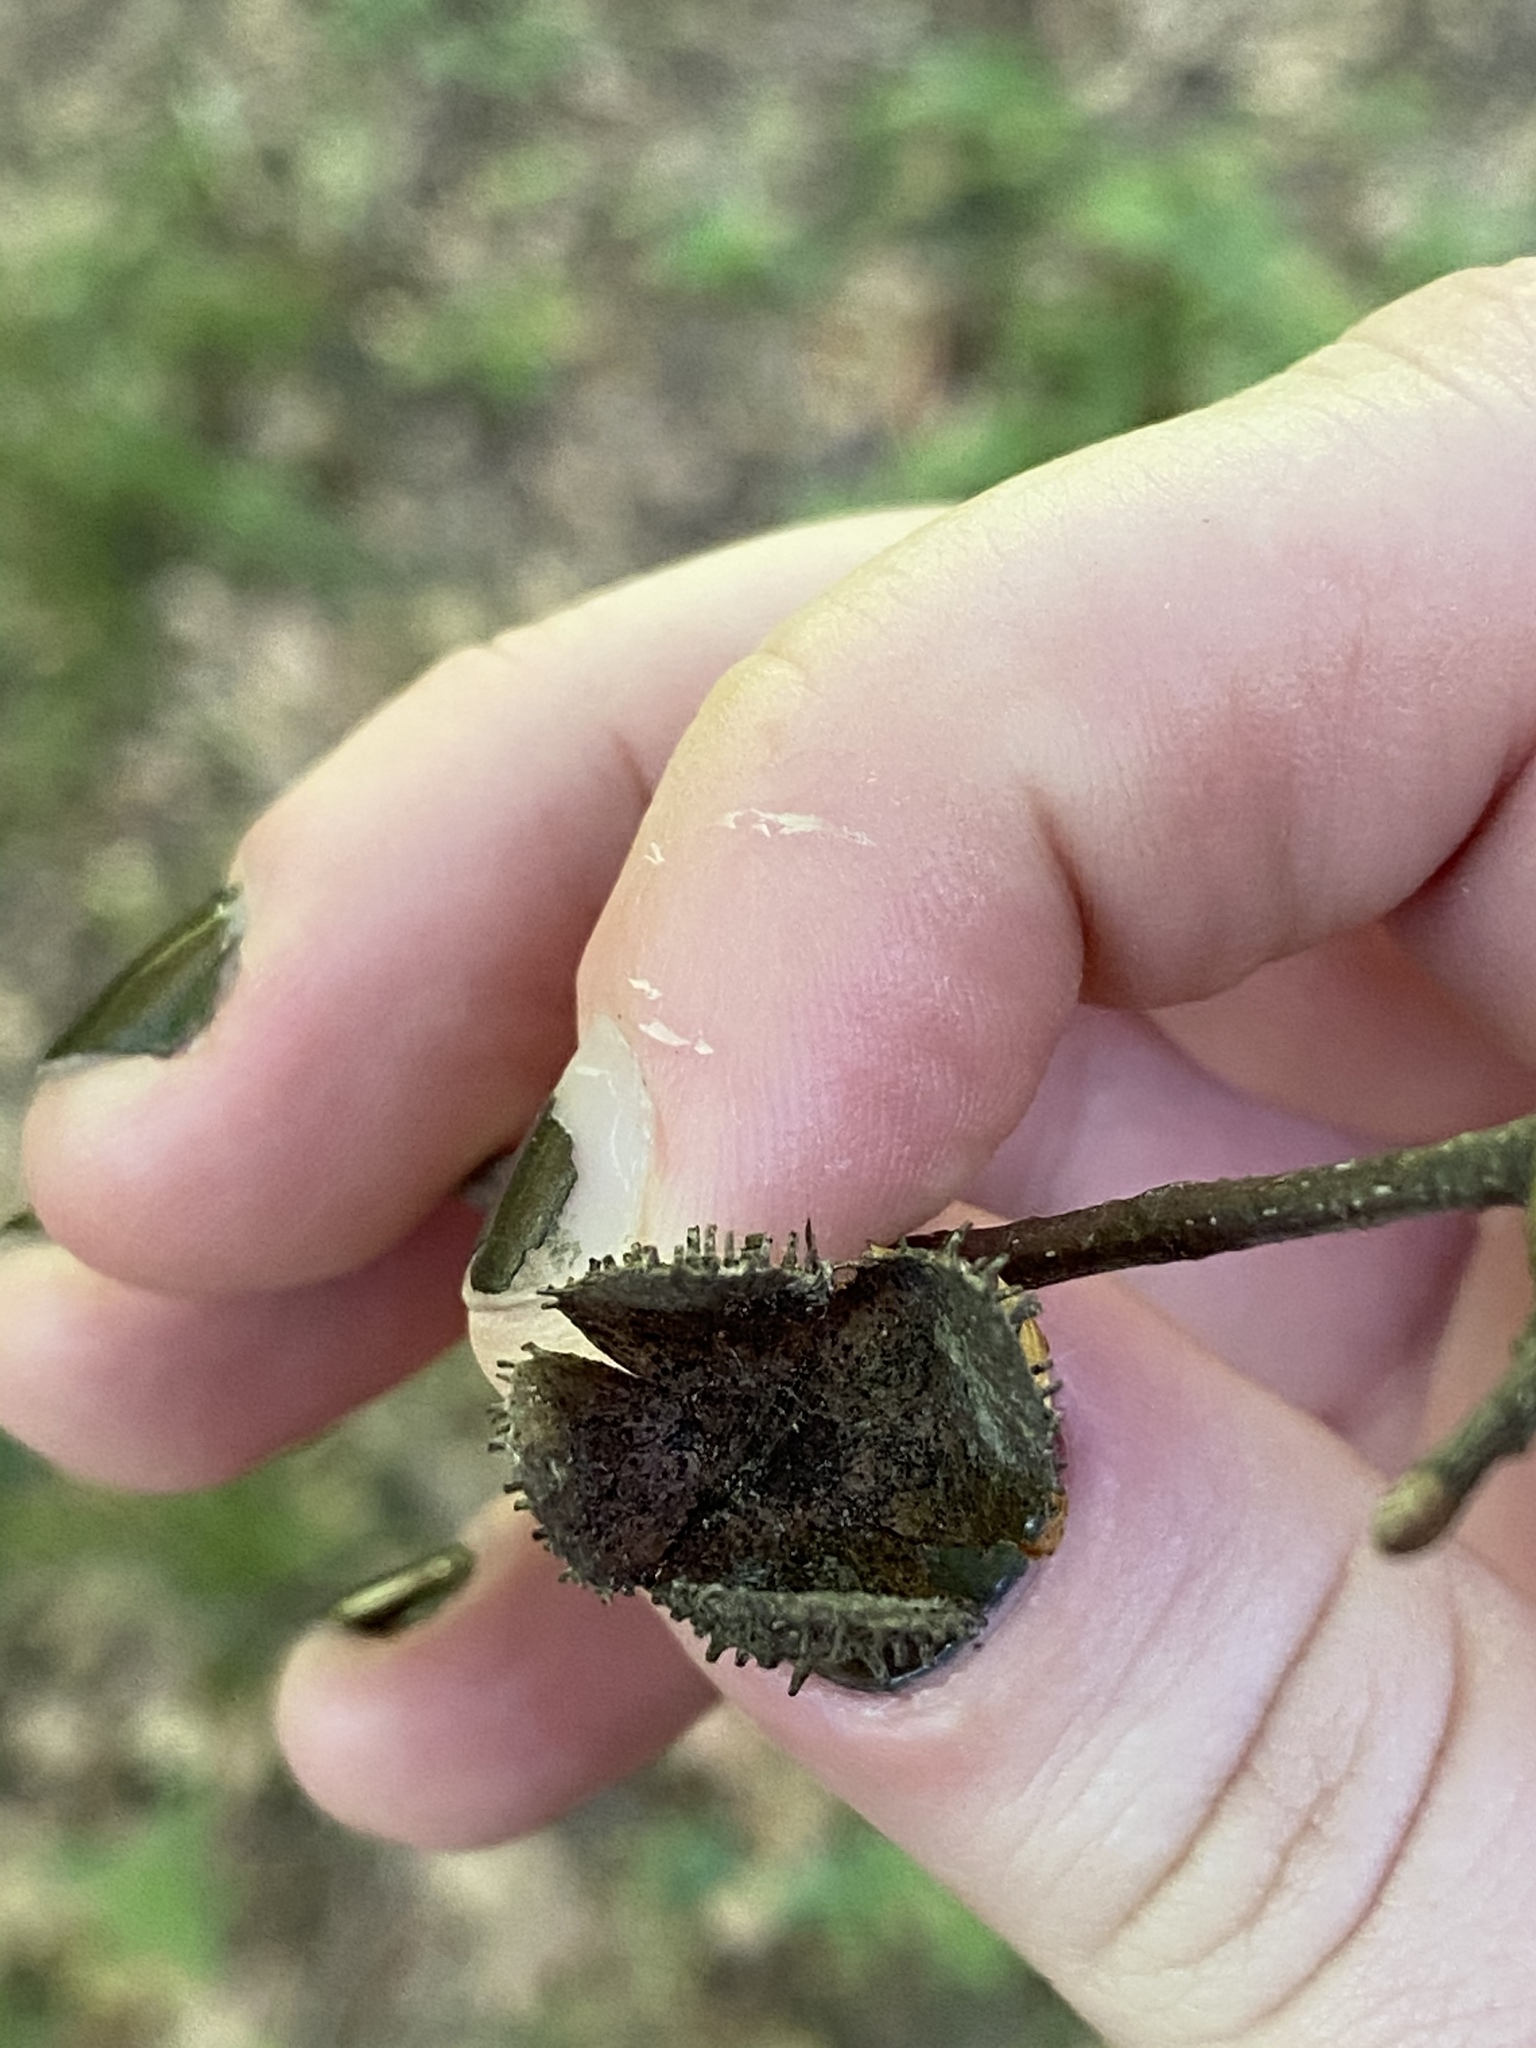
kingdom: Plantae
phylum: Tracheophyta
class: Magnoliopsida
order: Fagales
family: Fagaceae
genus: Fagus
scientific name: Fagus grandifolia
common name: American beech
